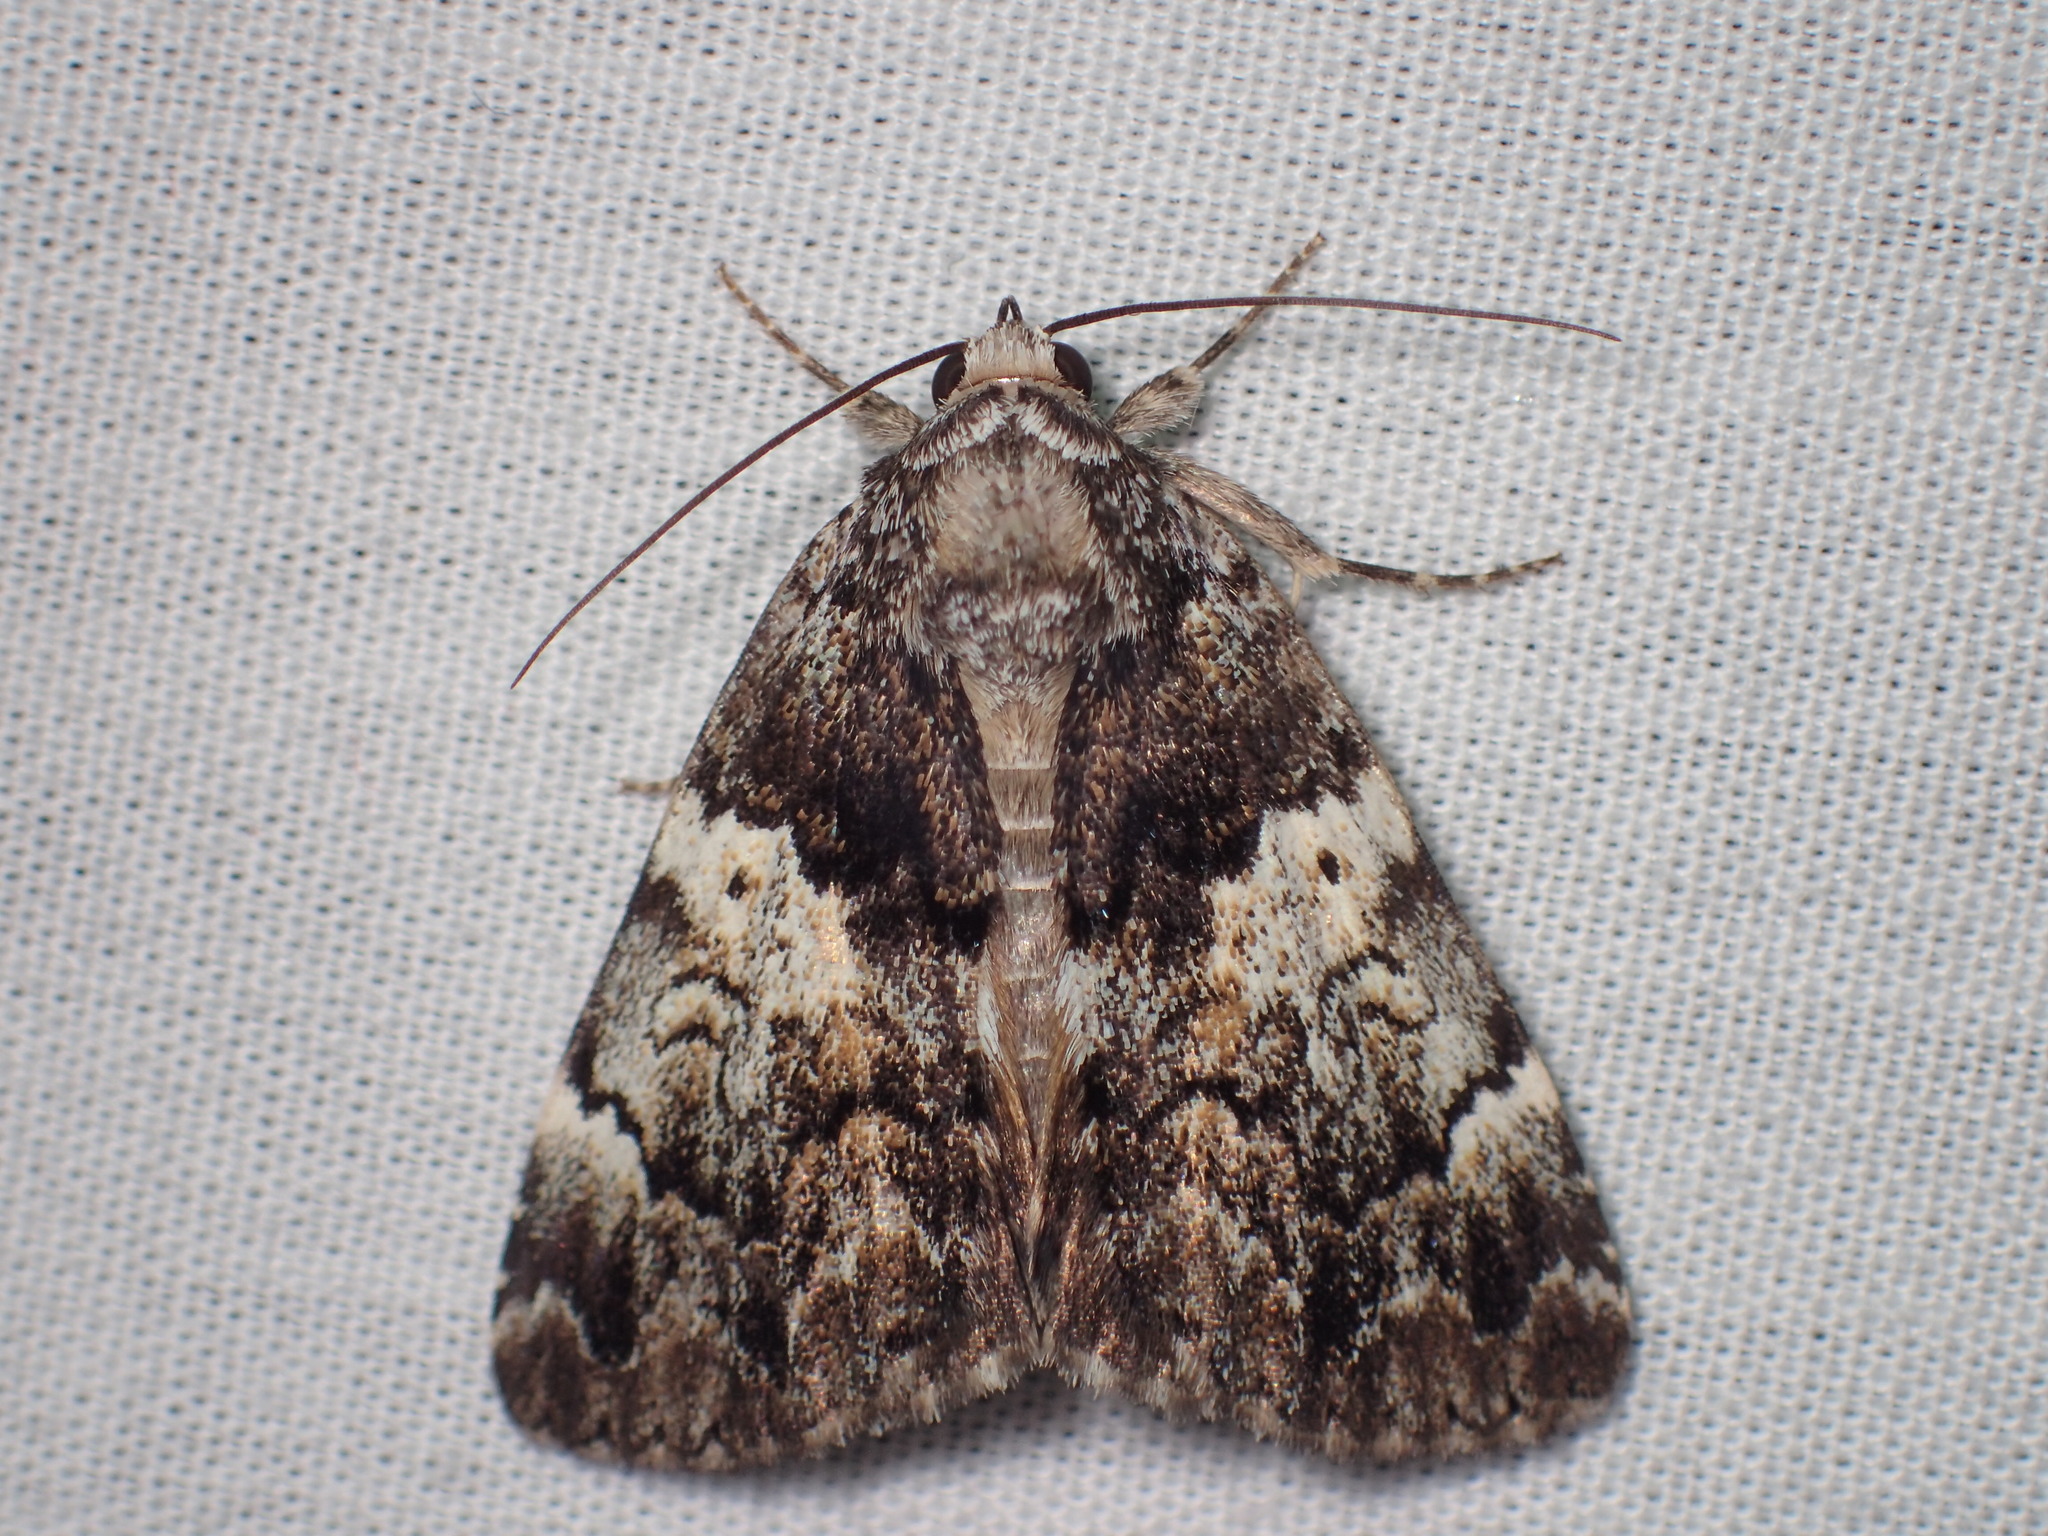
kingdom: Animalia
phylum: Arthropoda
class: Insecta
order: Lepidoptera
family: Erebidae
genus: Allotria
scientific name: Allotria elonympha
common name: False underwing
